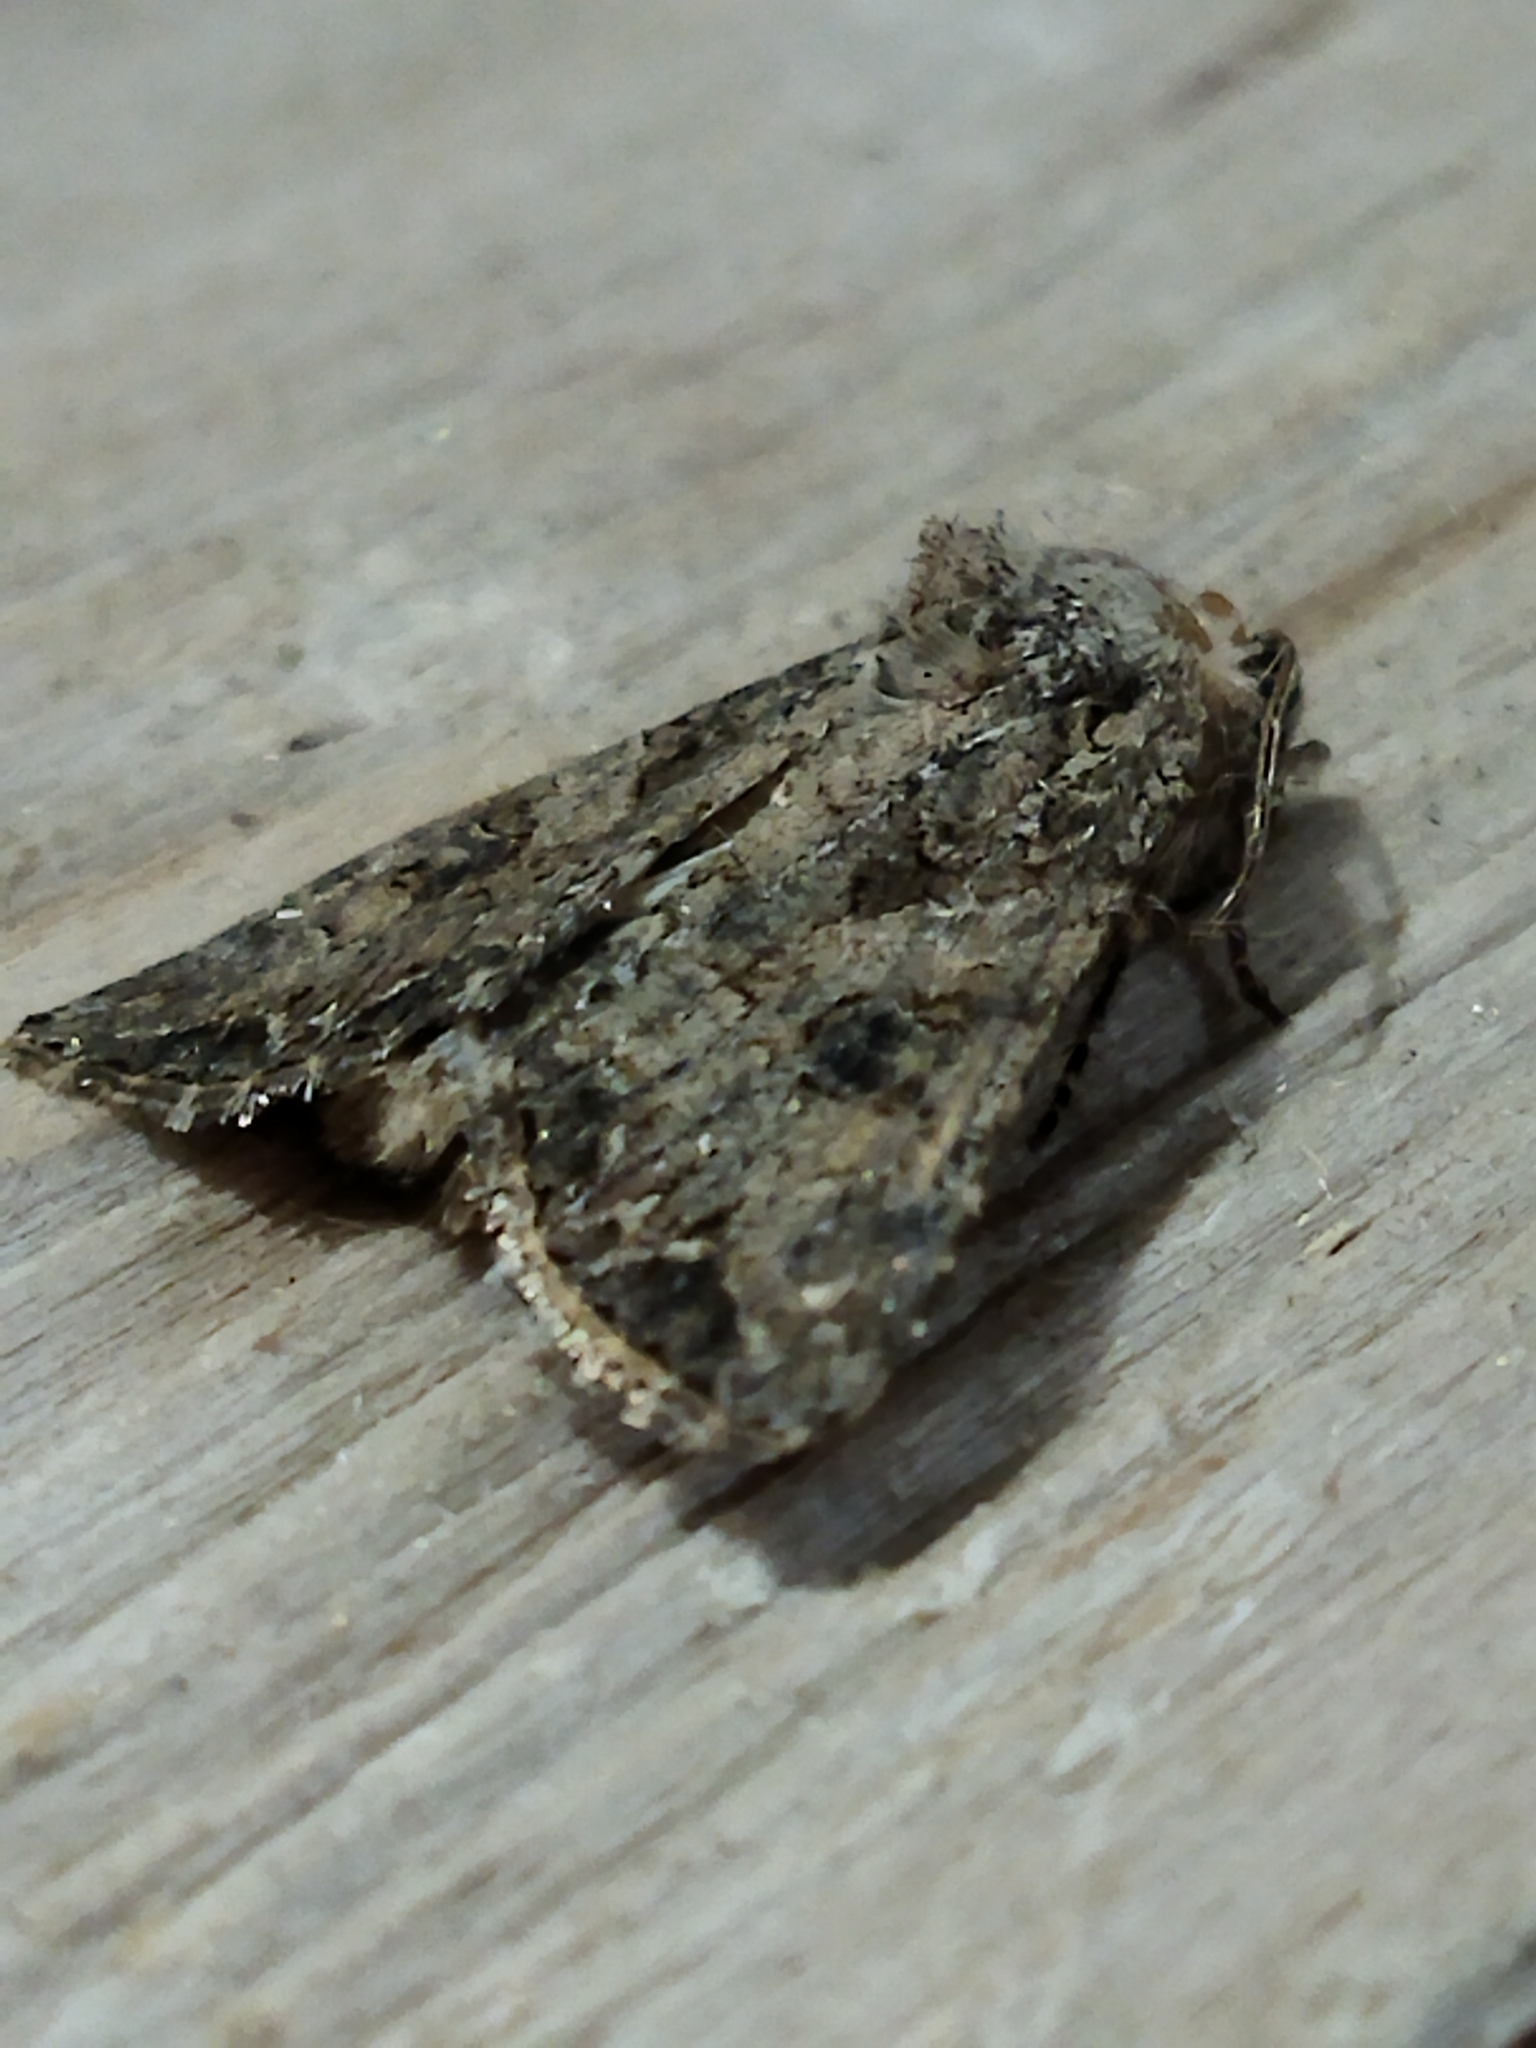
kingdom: Animalia
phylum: Arthropoda
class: Insecta
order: Lepidoptera
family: Noctuidae
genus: Anarta
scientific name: Anarta trifolii
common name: Clover cutworm moth
